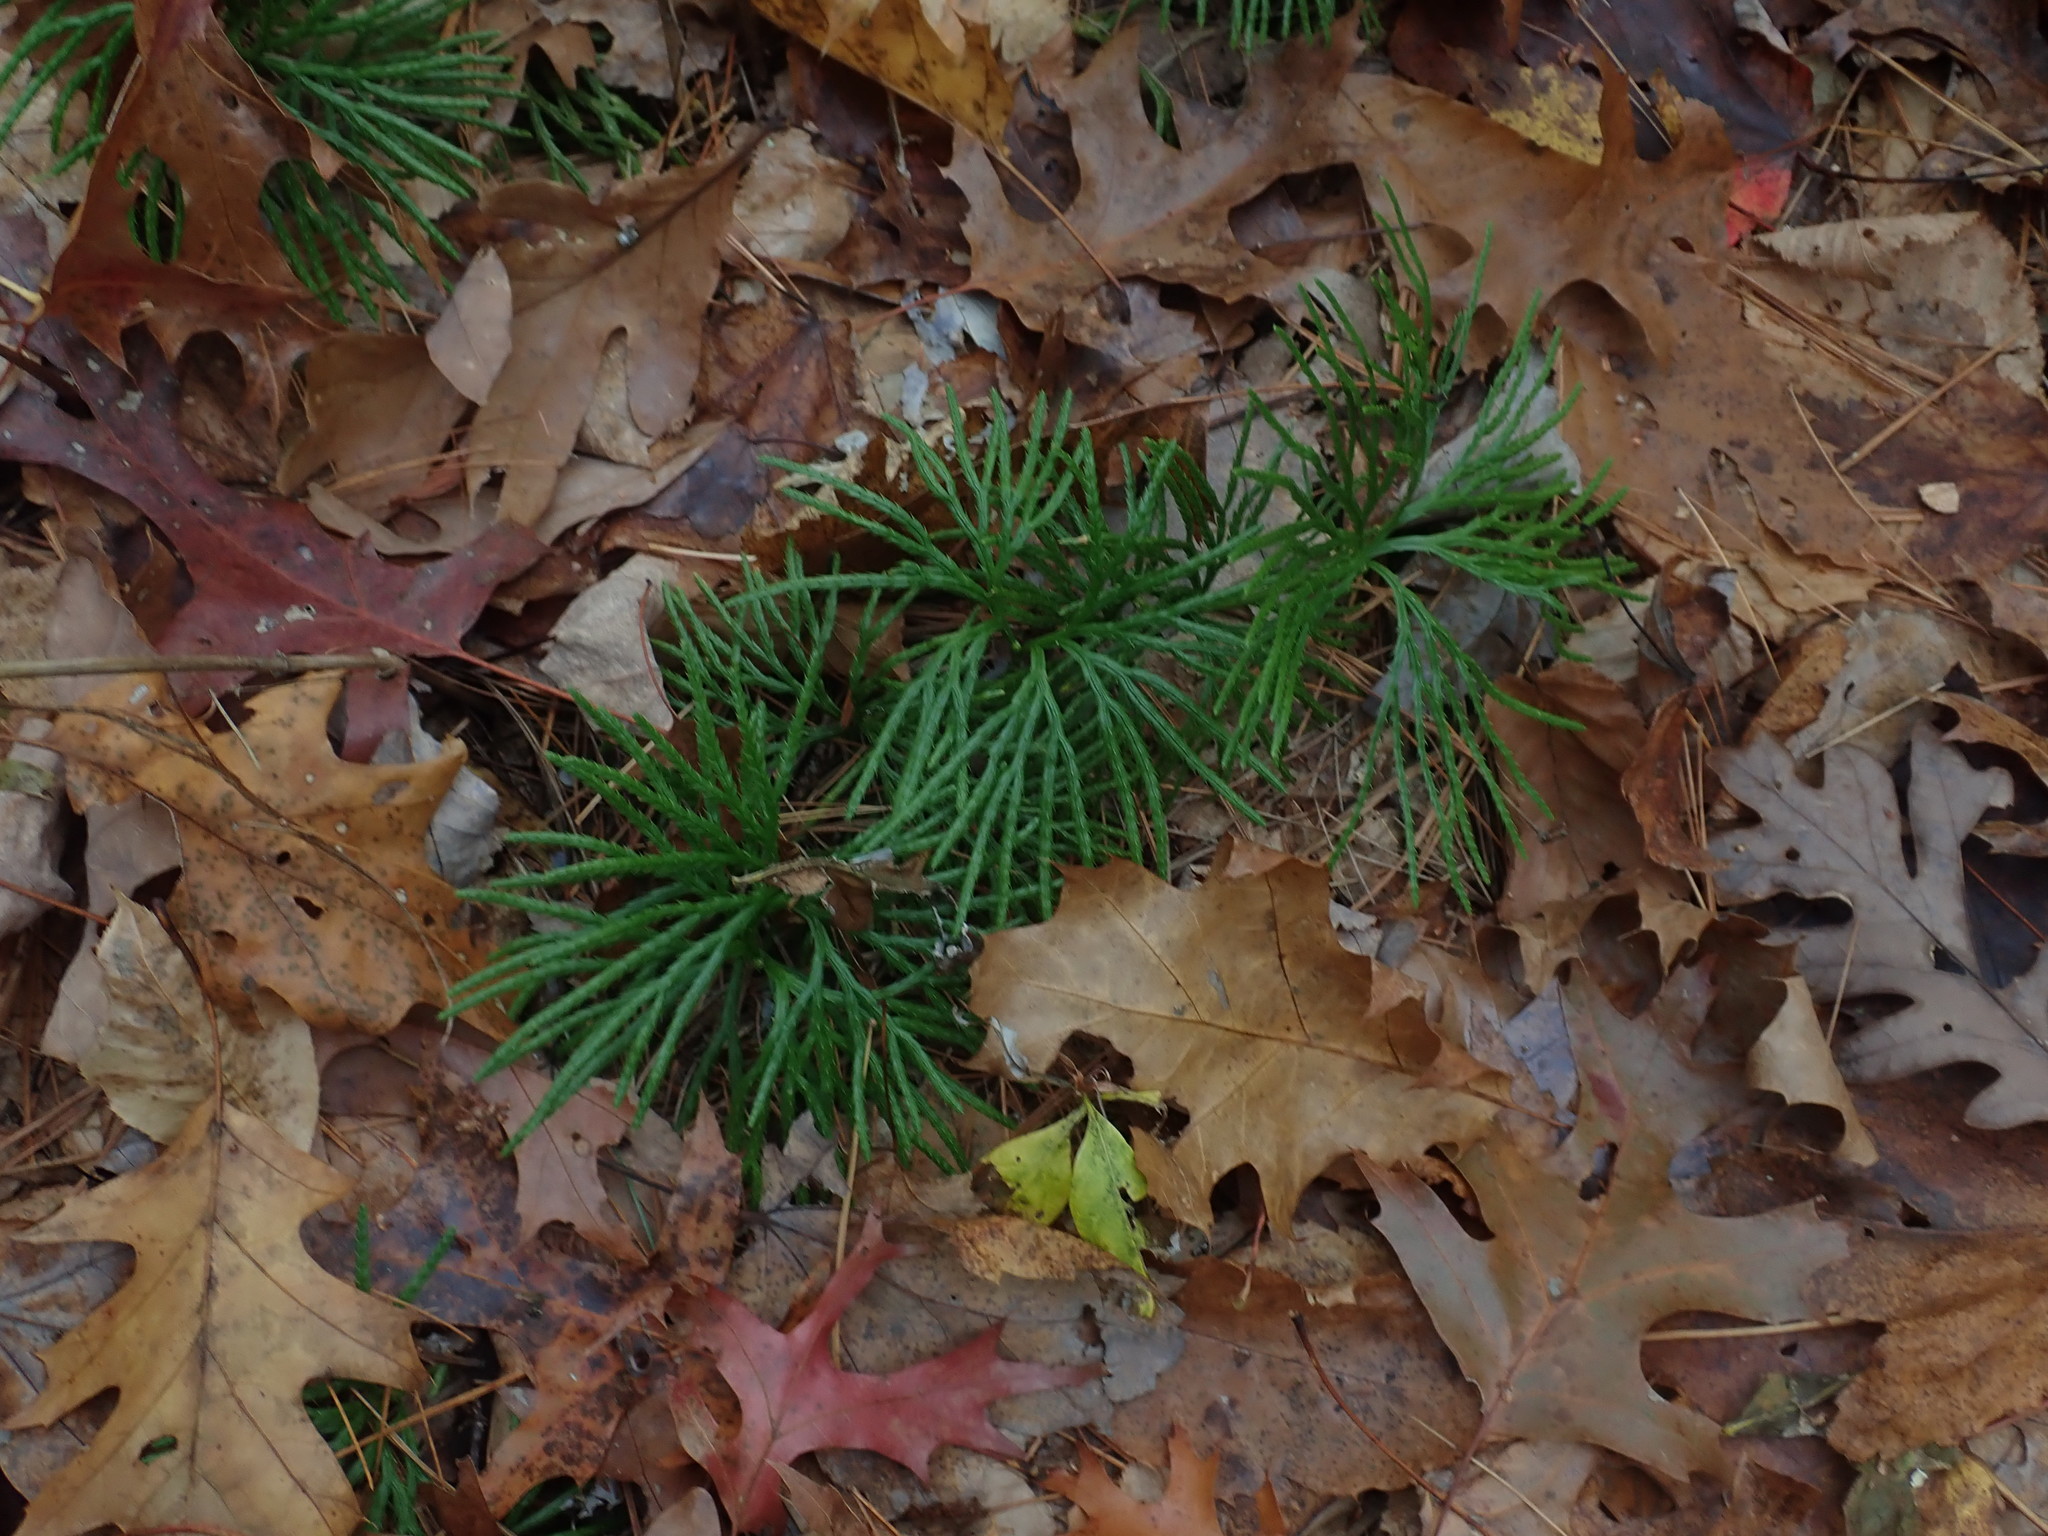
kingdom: Plantae
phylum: Tracheophyta
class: Lycopodiopsida
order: Lycopodiales
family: Lycopodiaceae
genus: Diphasiastrum
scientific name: Diphasiastrum digitatum
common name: Southern running-pine
